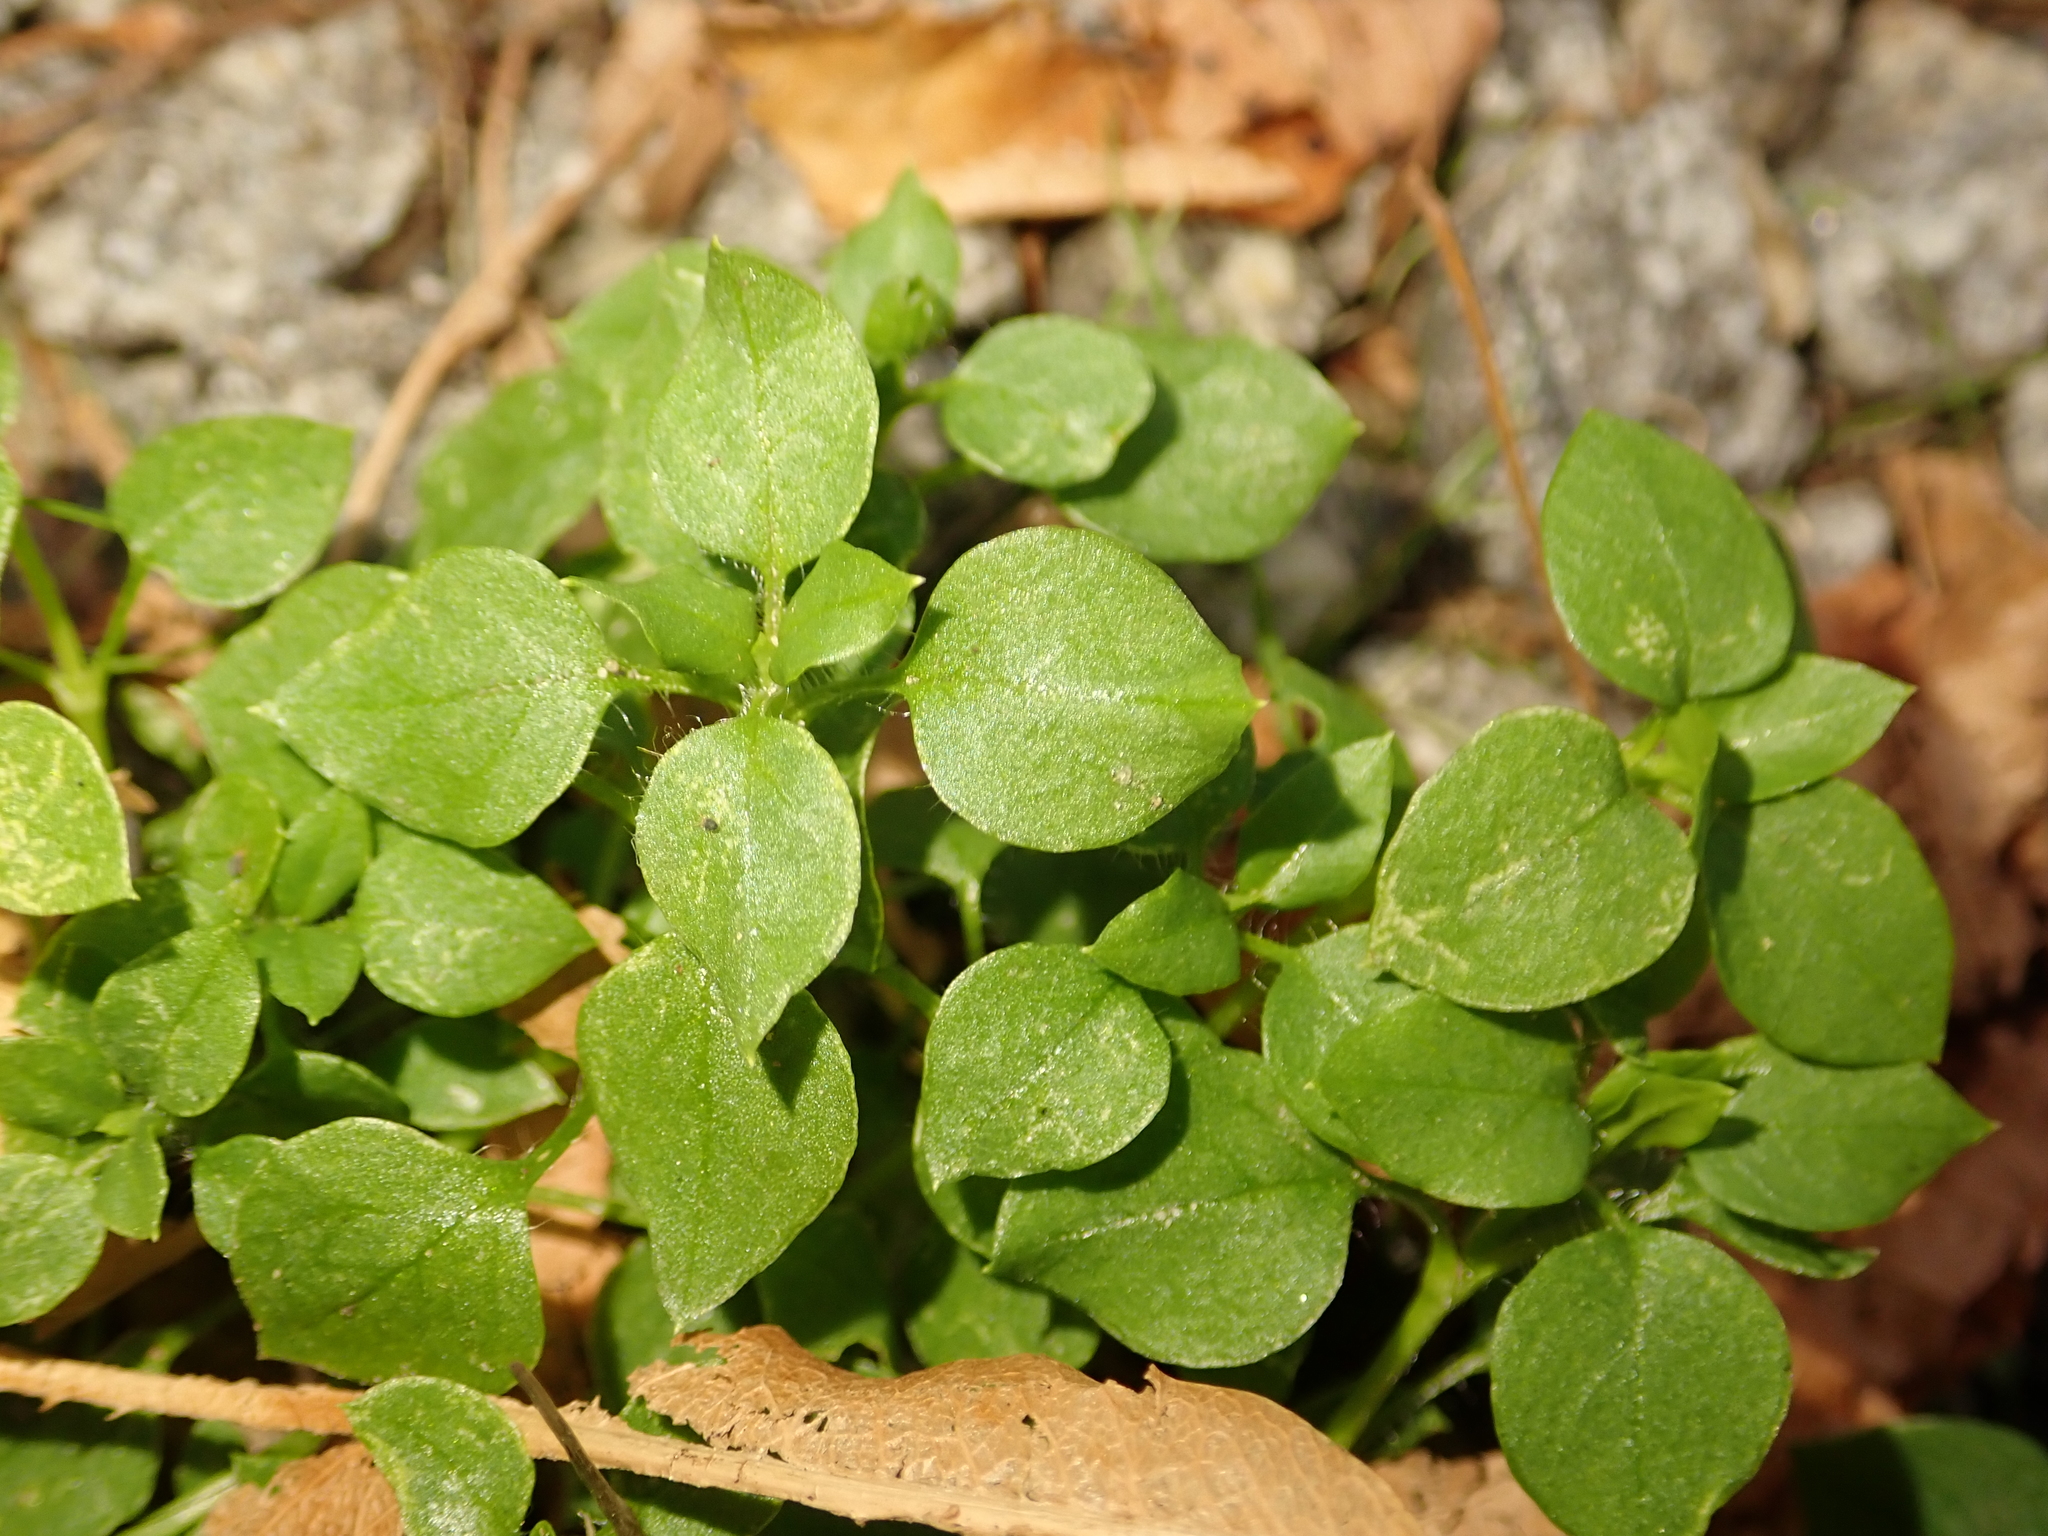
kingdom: Plantae
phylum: Tracheophyta
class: Magnoliopsida
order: Caryophyllales
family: Caryophyllaceae
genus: Stellaria
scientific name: Stellaria media
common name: Common chickweed
